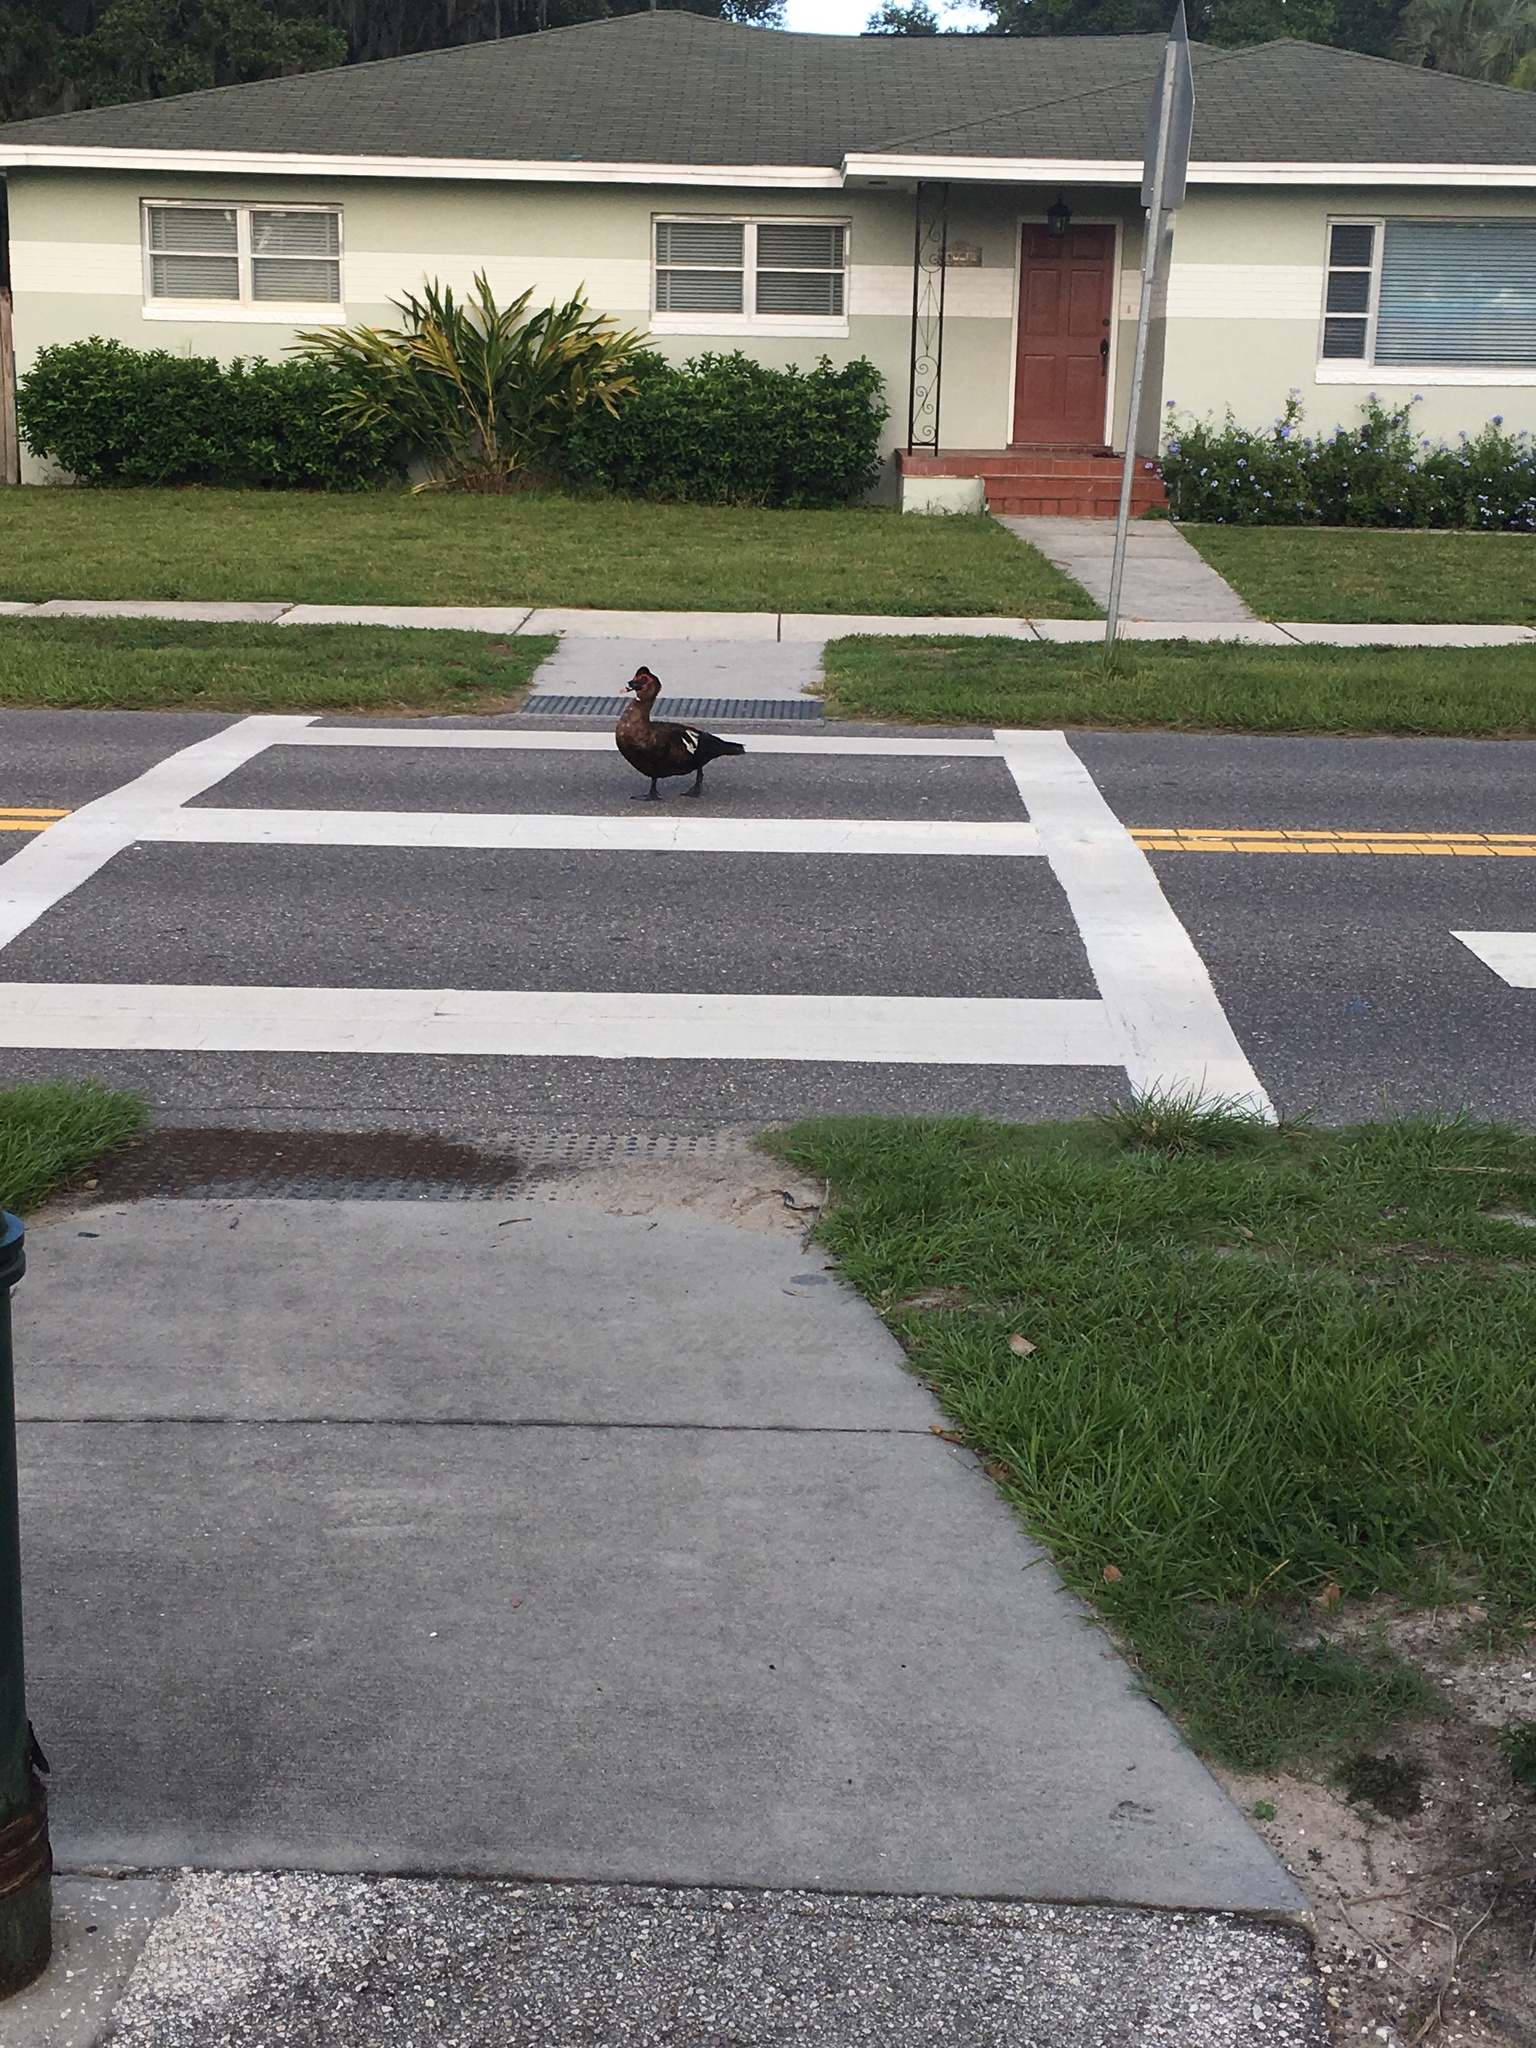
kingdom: Animalia
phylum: Chordata
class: Aves
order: Anseriformes
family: Anatidae
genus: Cairina
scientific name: Cairina moschata
